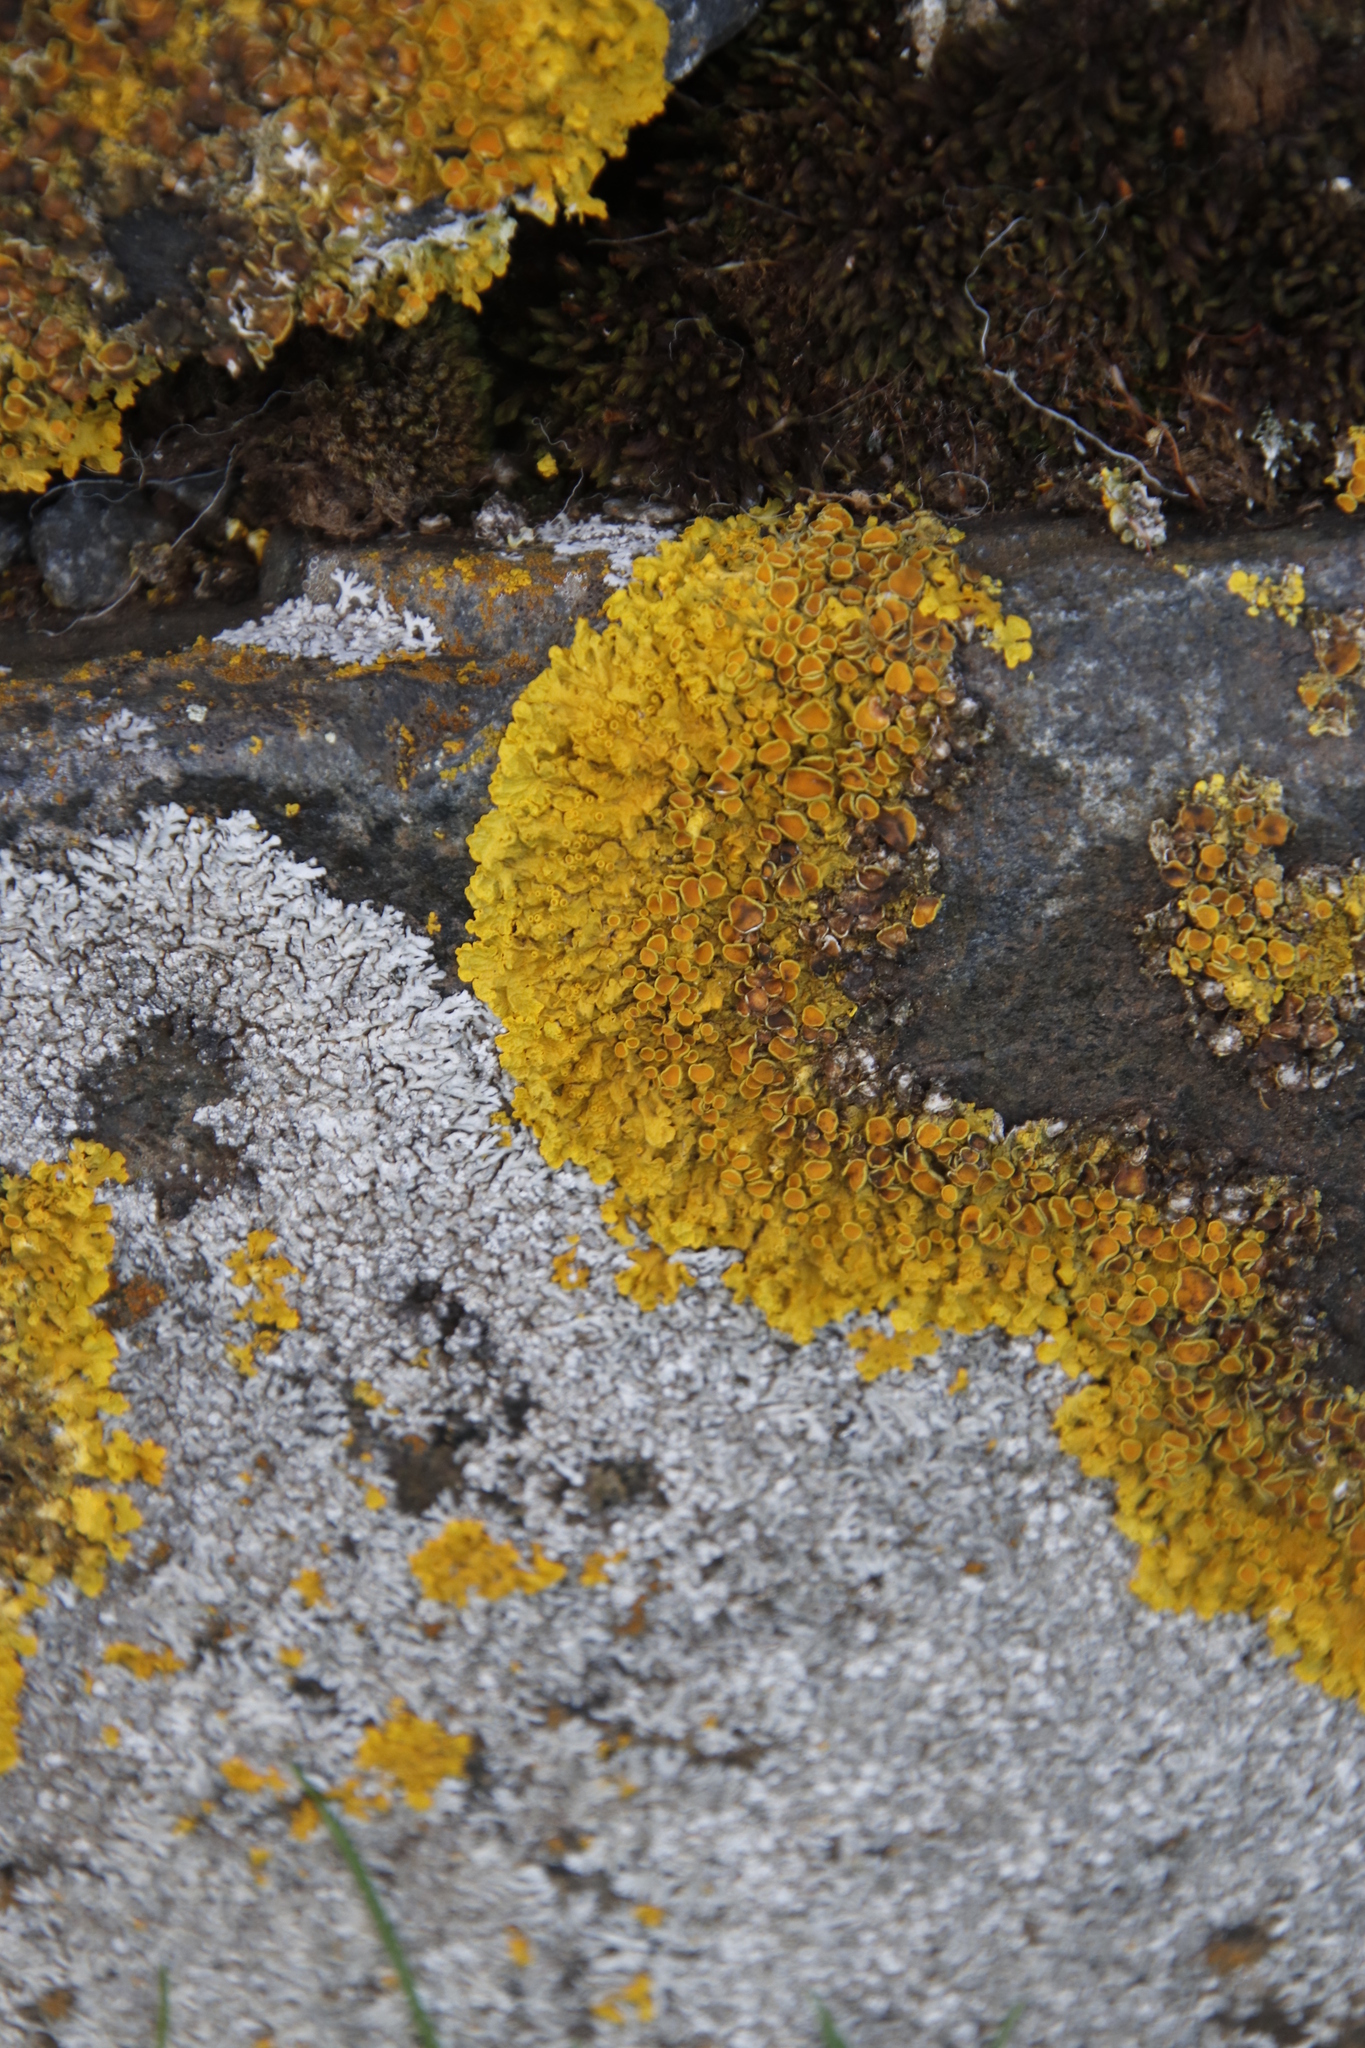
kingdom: Fungi
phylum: Ascomycota
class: Lecanoromycetes
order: Teloschistales
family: Teloschistaceae
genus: Xanthoria
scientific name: Xanthoria parietina
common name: Common orange lichen
